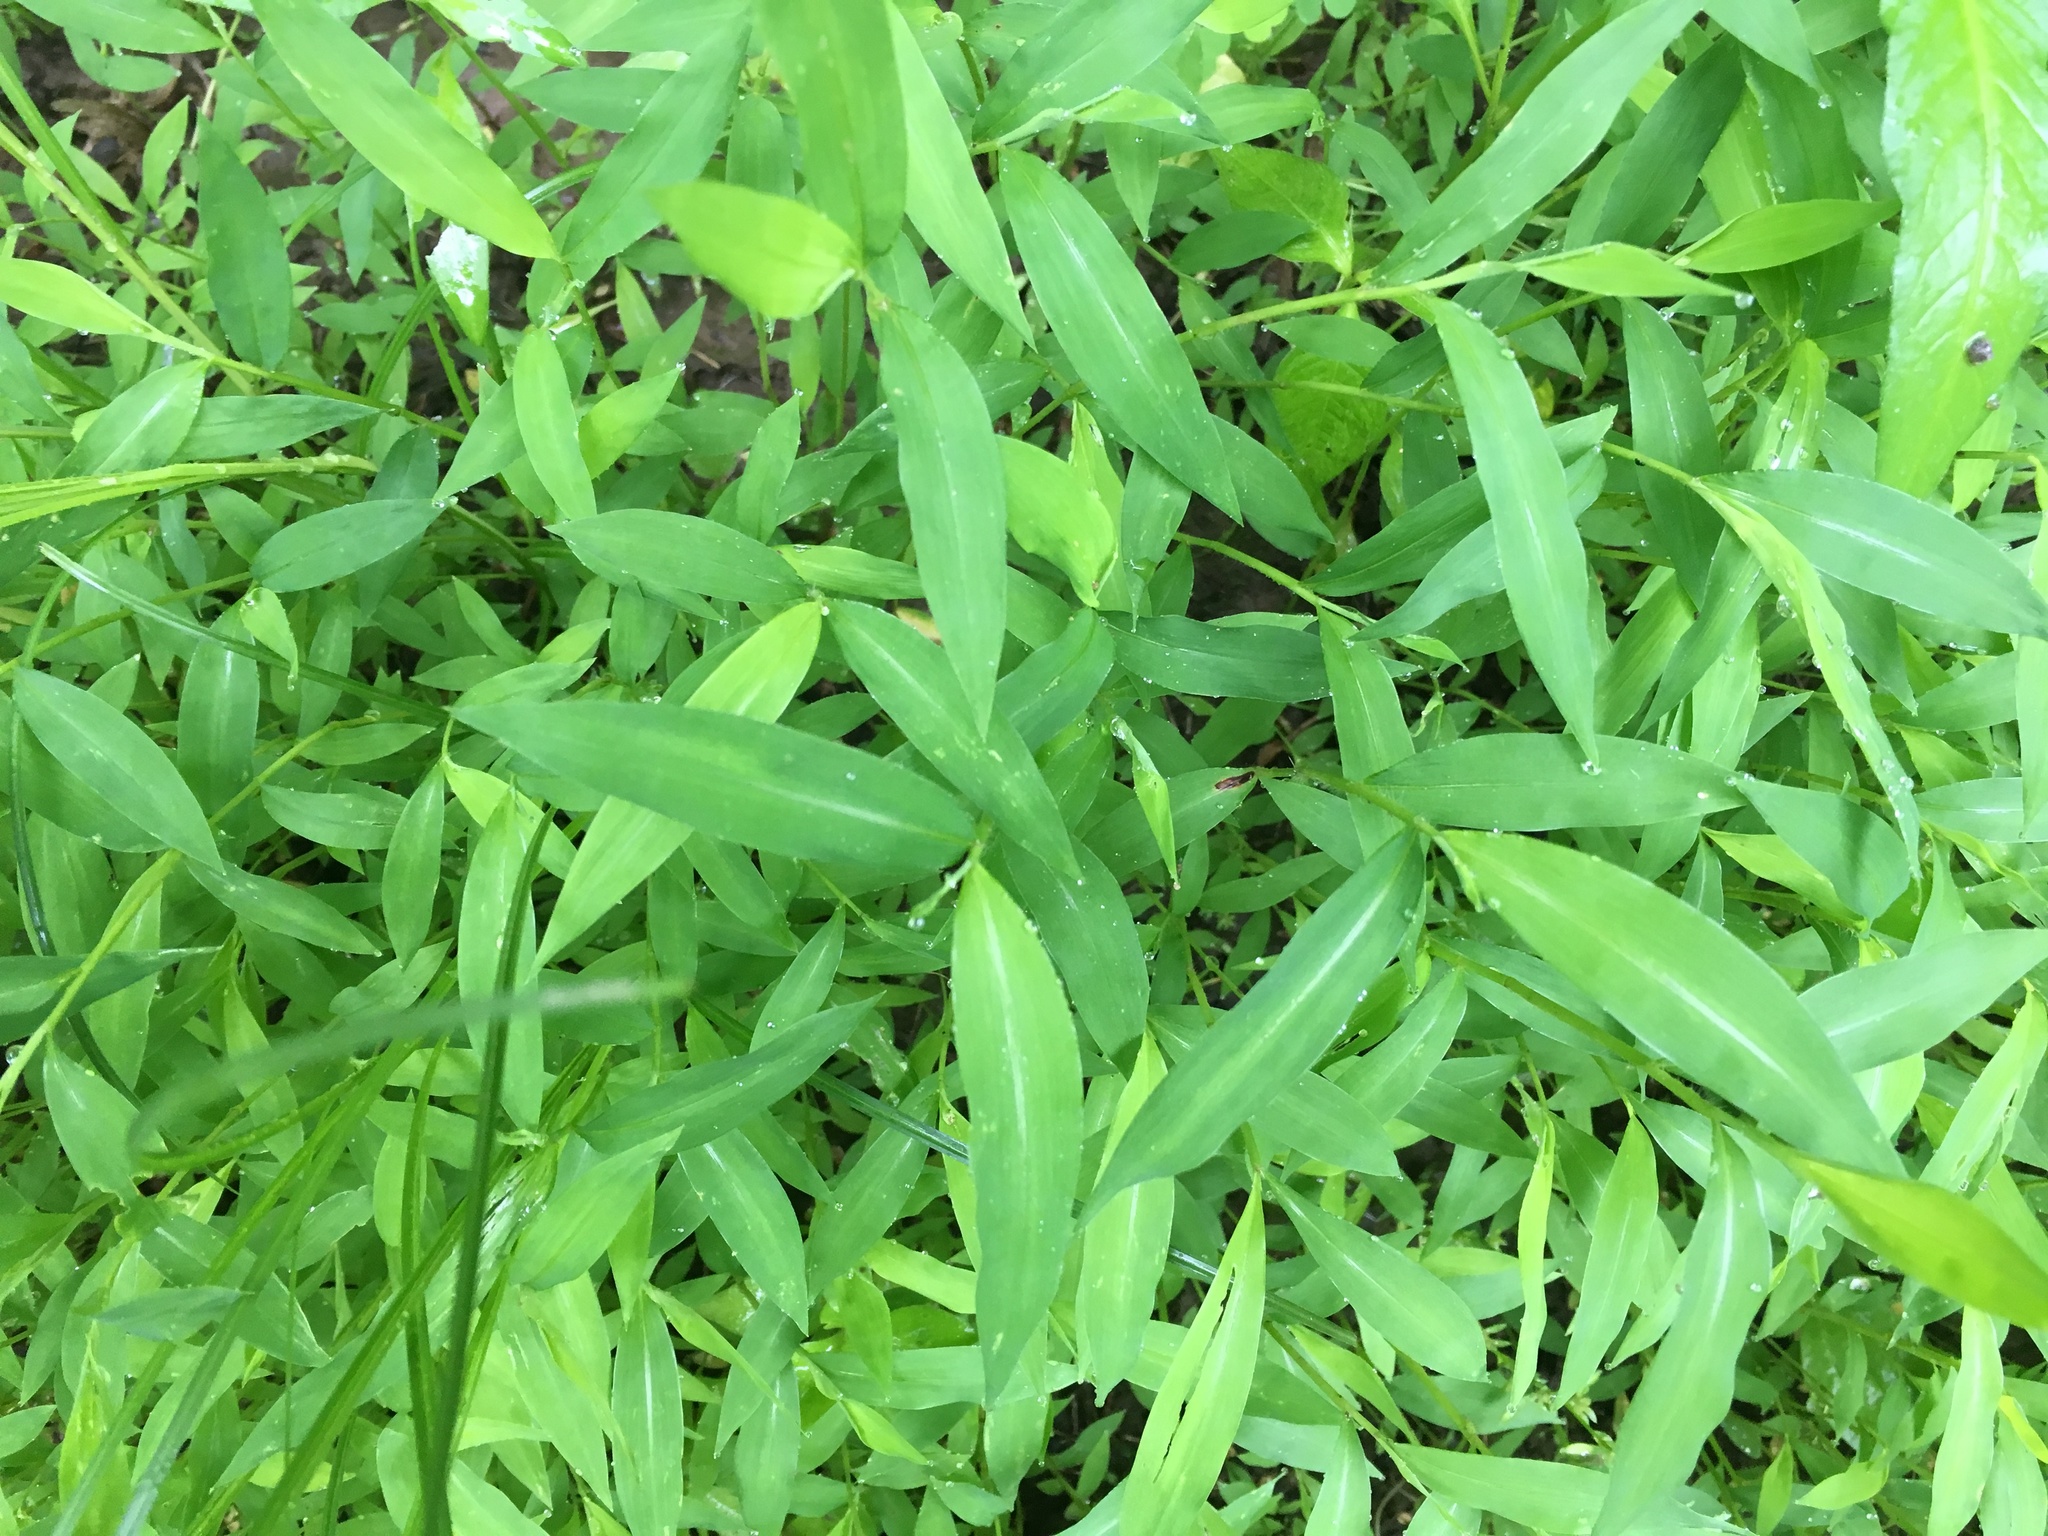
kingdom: Plantae
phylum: Tracheophyta
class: Liliopsida
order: Poales
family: Poaceae
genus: Microstegium
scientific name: Microstegium vimineum
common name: Japanese stiltgrass
